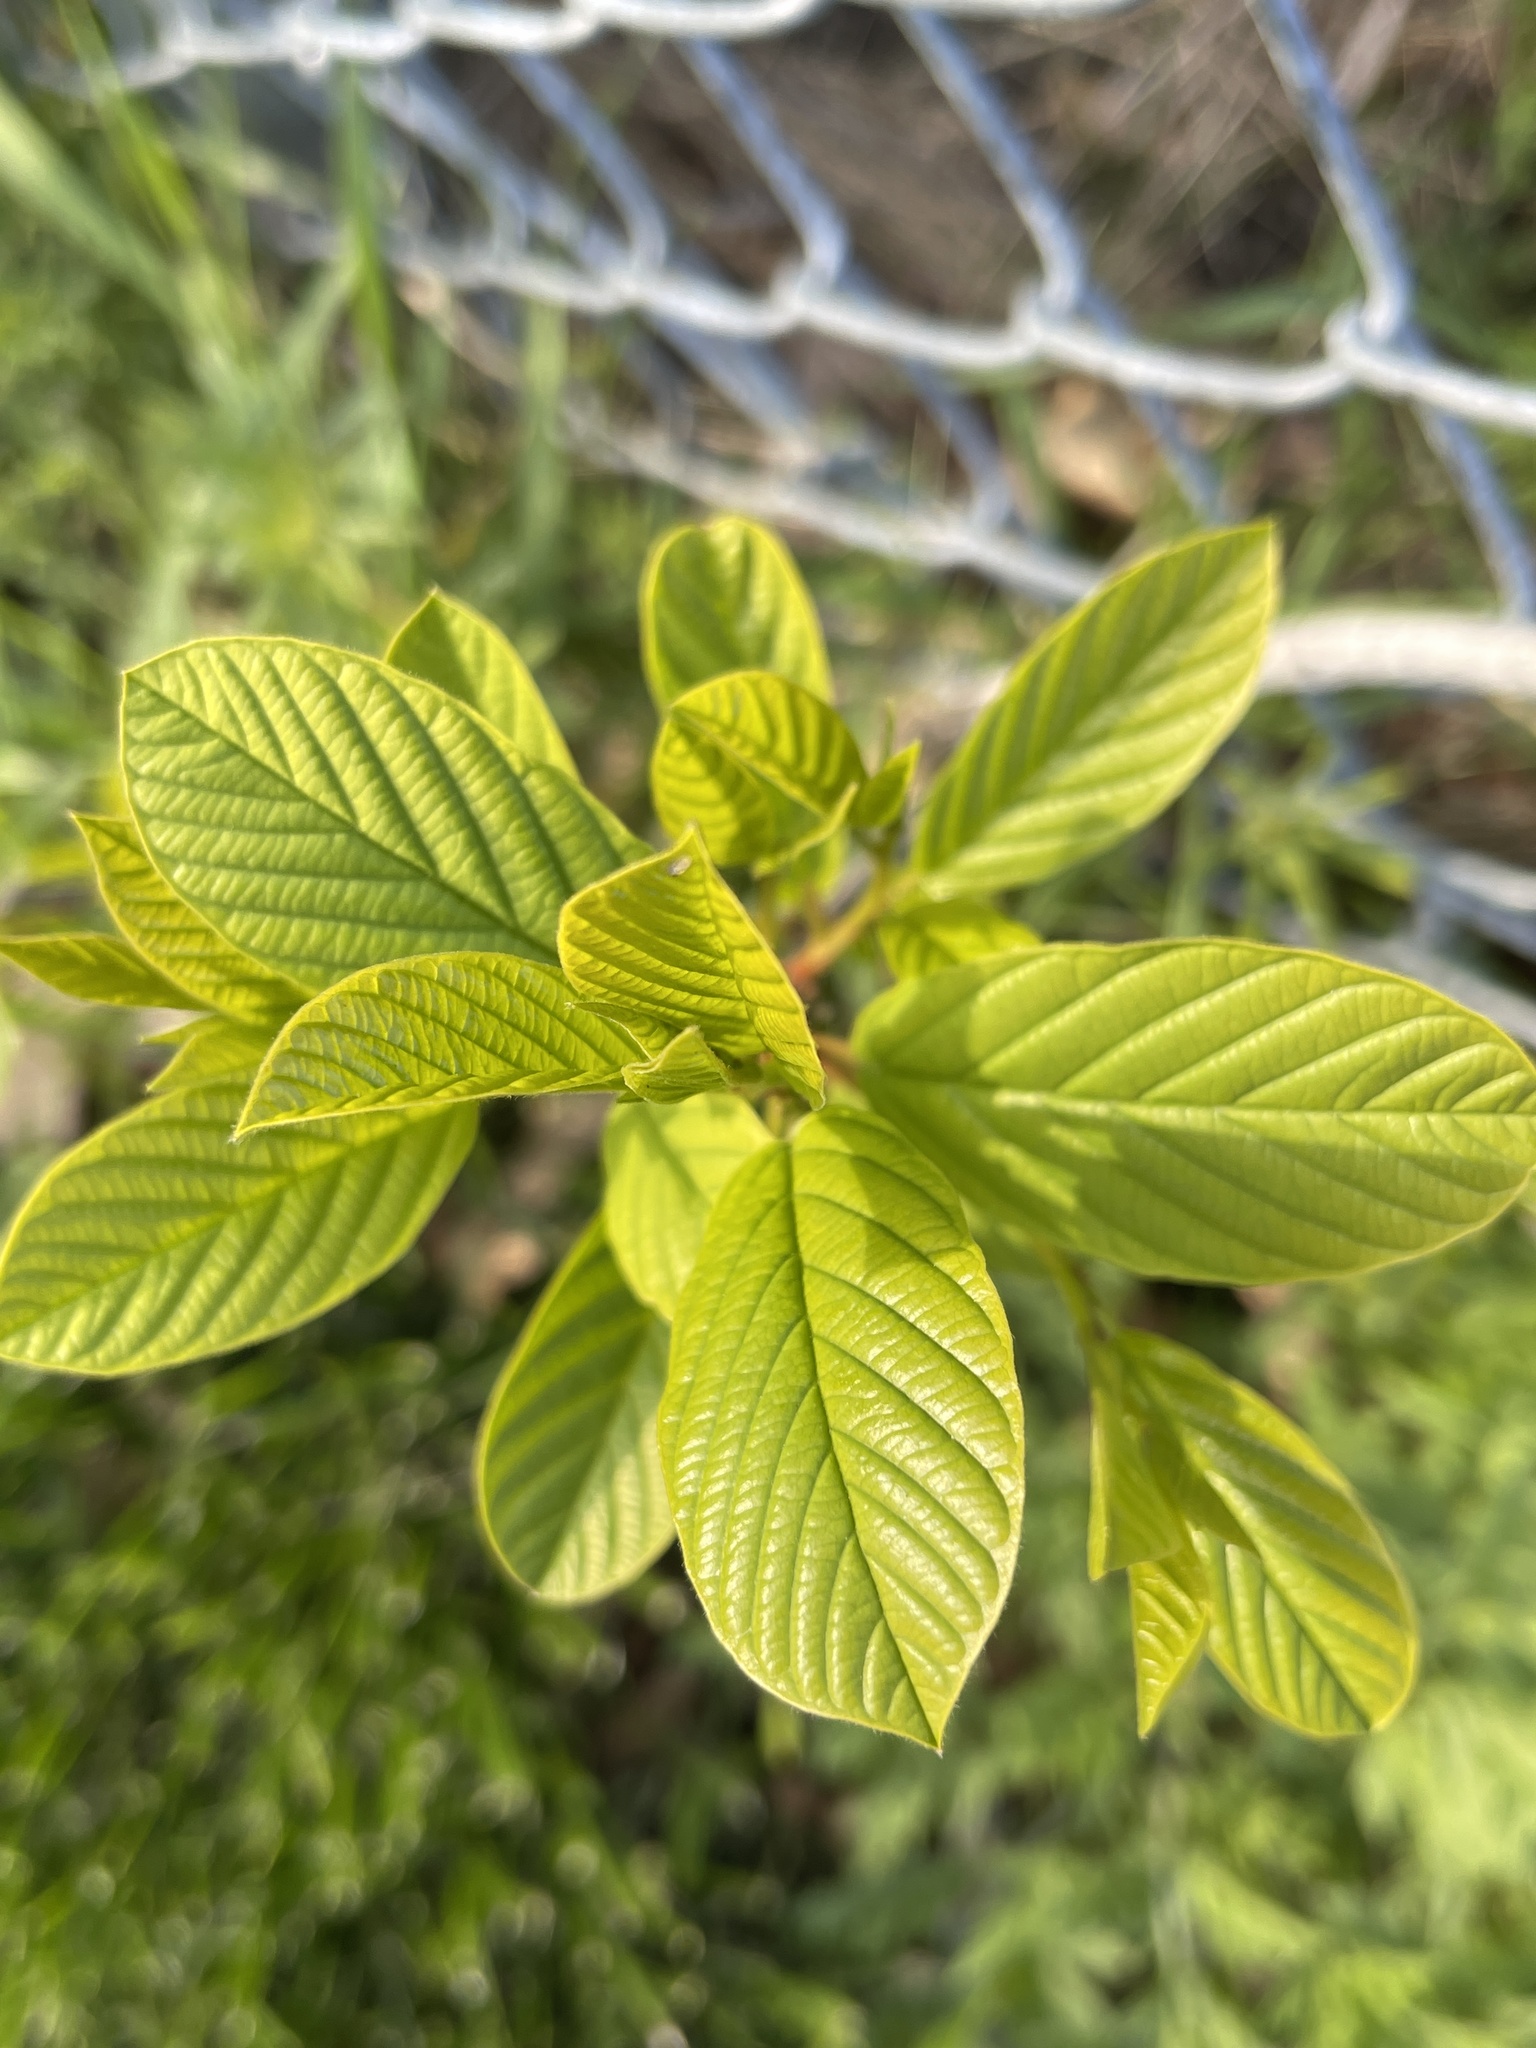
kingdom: Plantae
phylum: Tracheophyta
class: Magnoliopsida
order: Rosales
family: Rhamnaceae
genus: Frangula
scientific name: Frangula alnus
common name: Alder buckthorn
